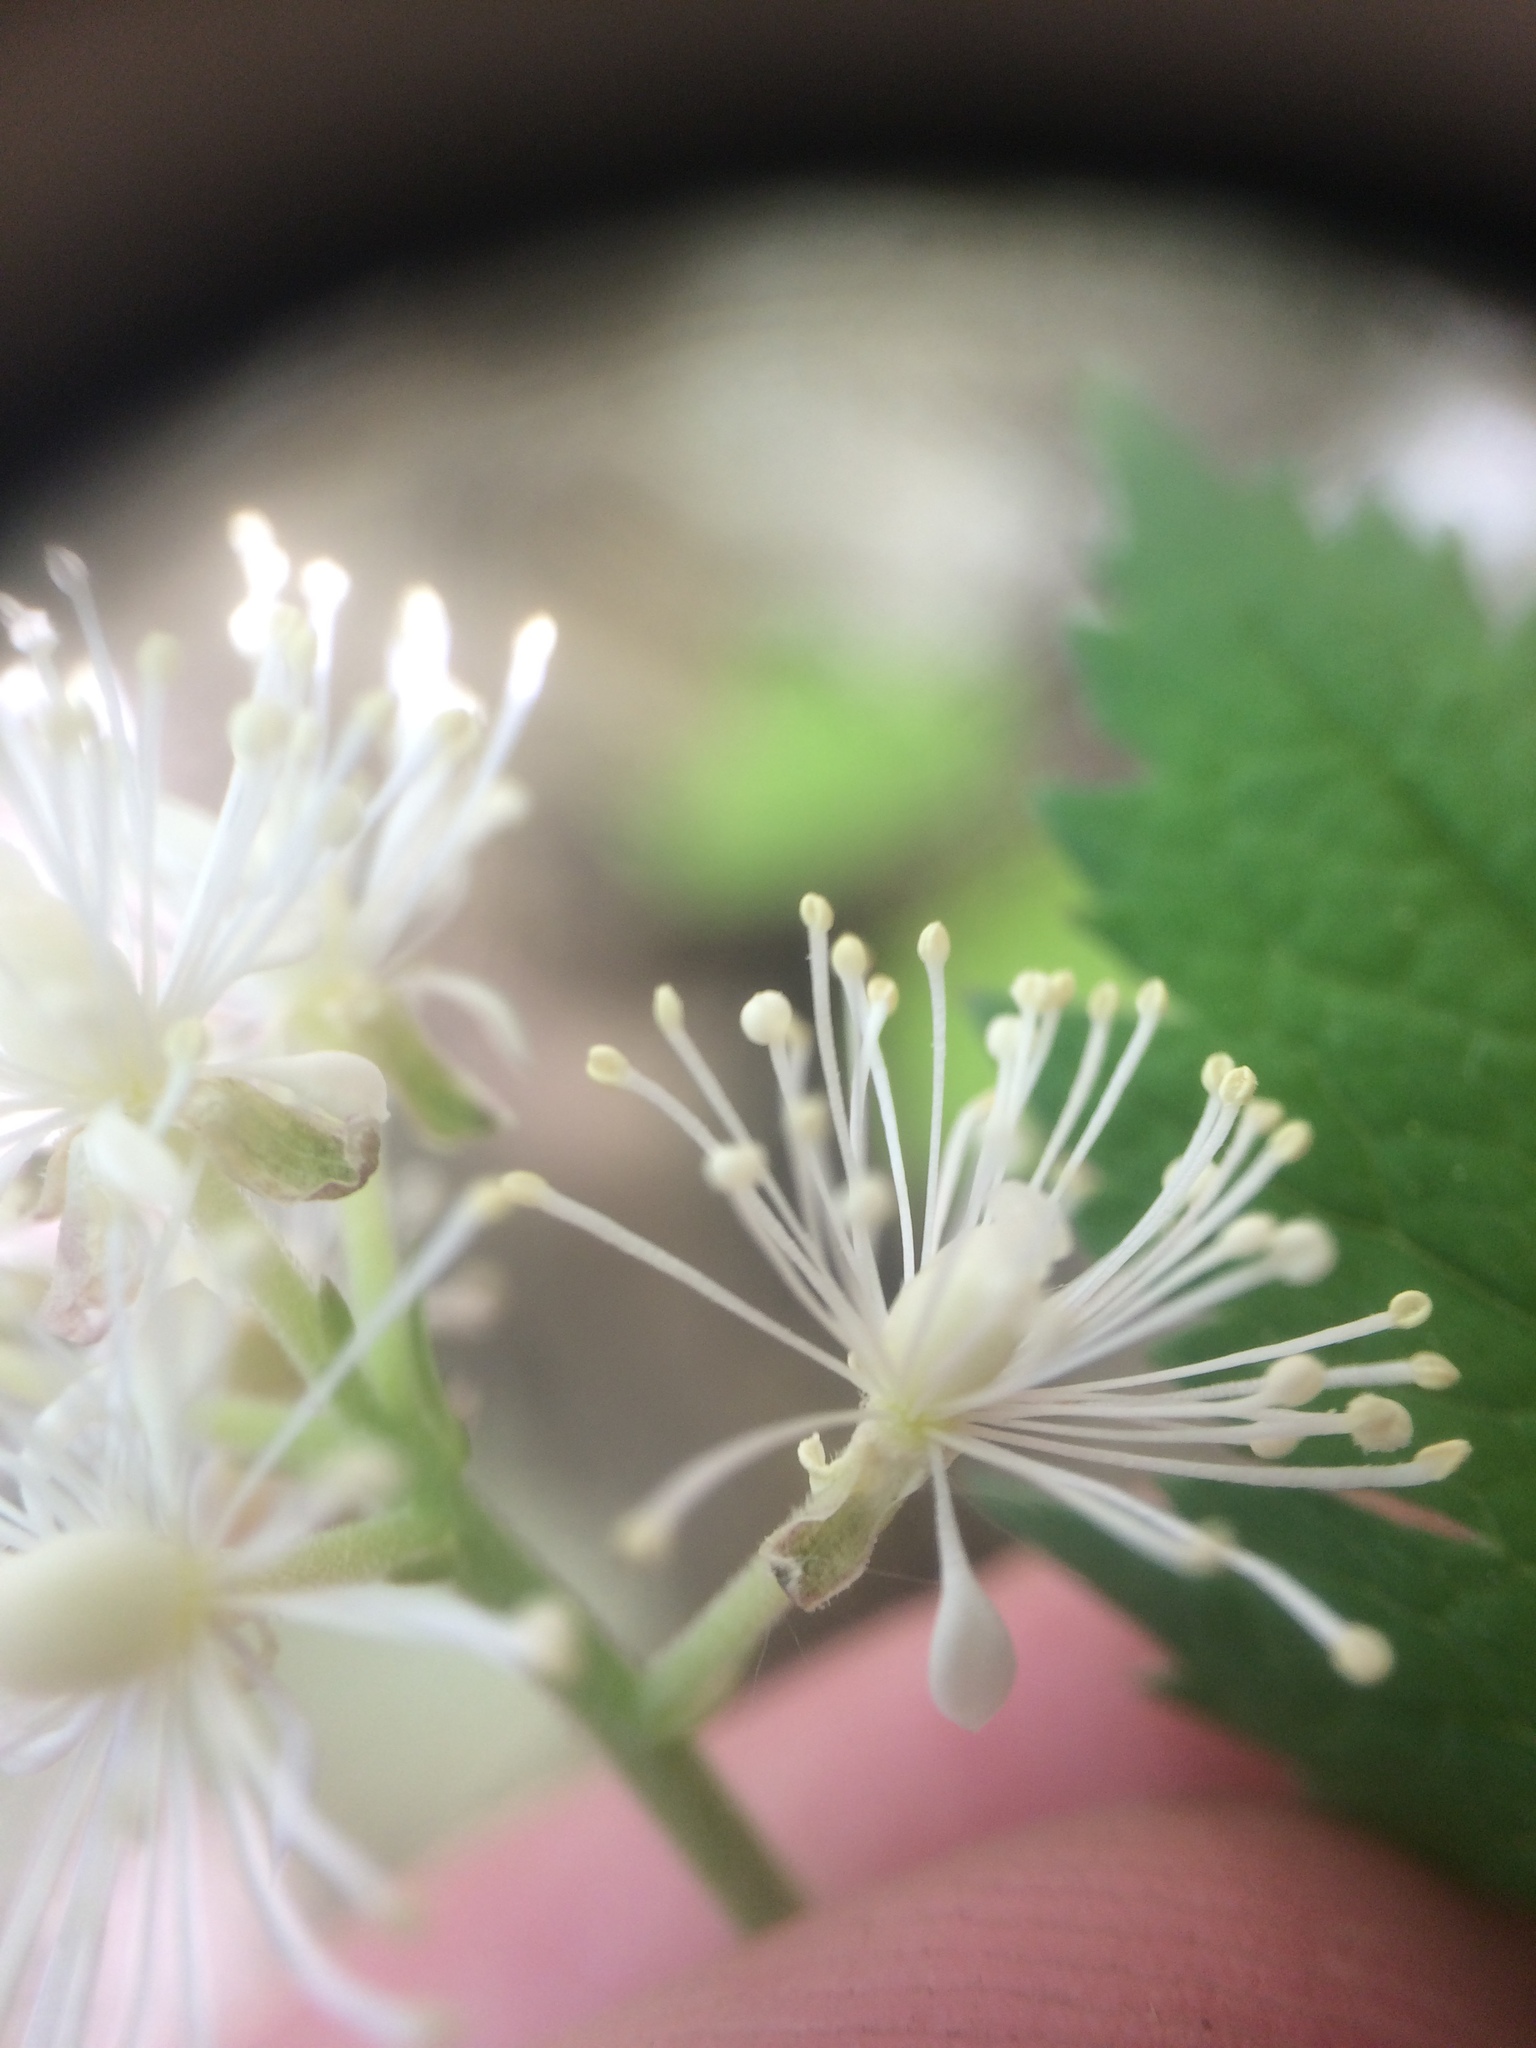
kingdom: Plantae
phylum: Tracheophyta
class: Magnoliopsida
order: Ranunculales
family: Ranunculaceae
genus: Actaea
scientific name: Actaea rubra
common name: Red baneberry
